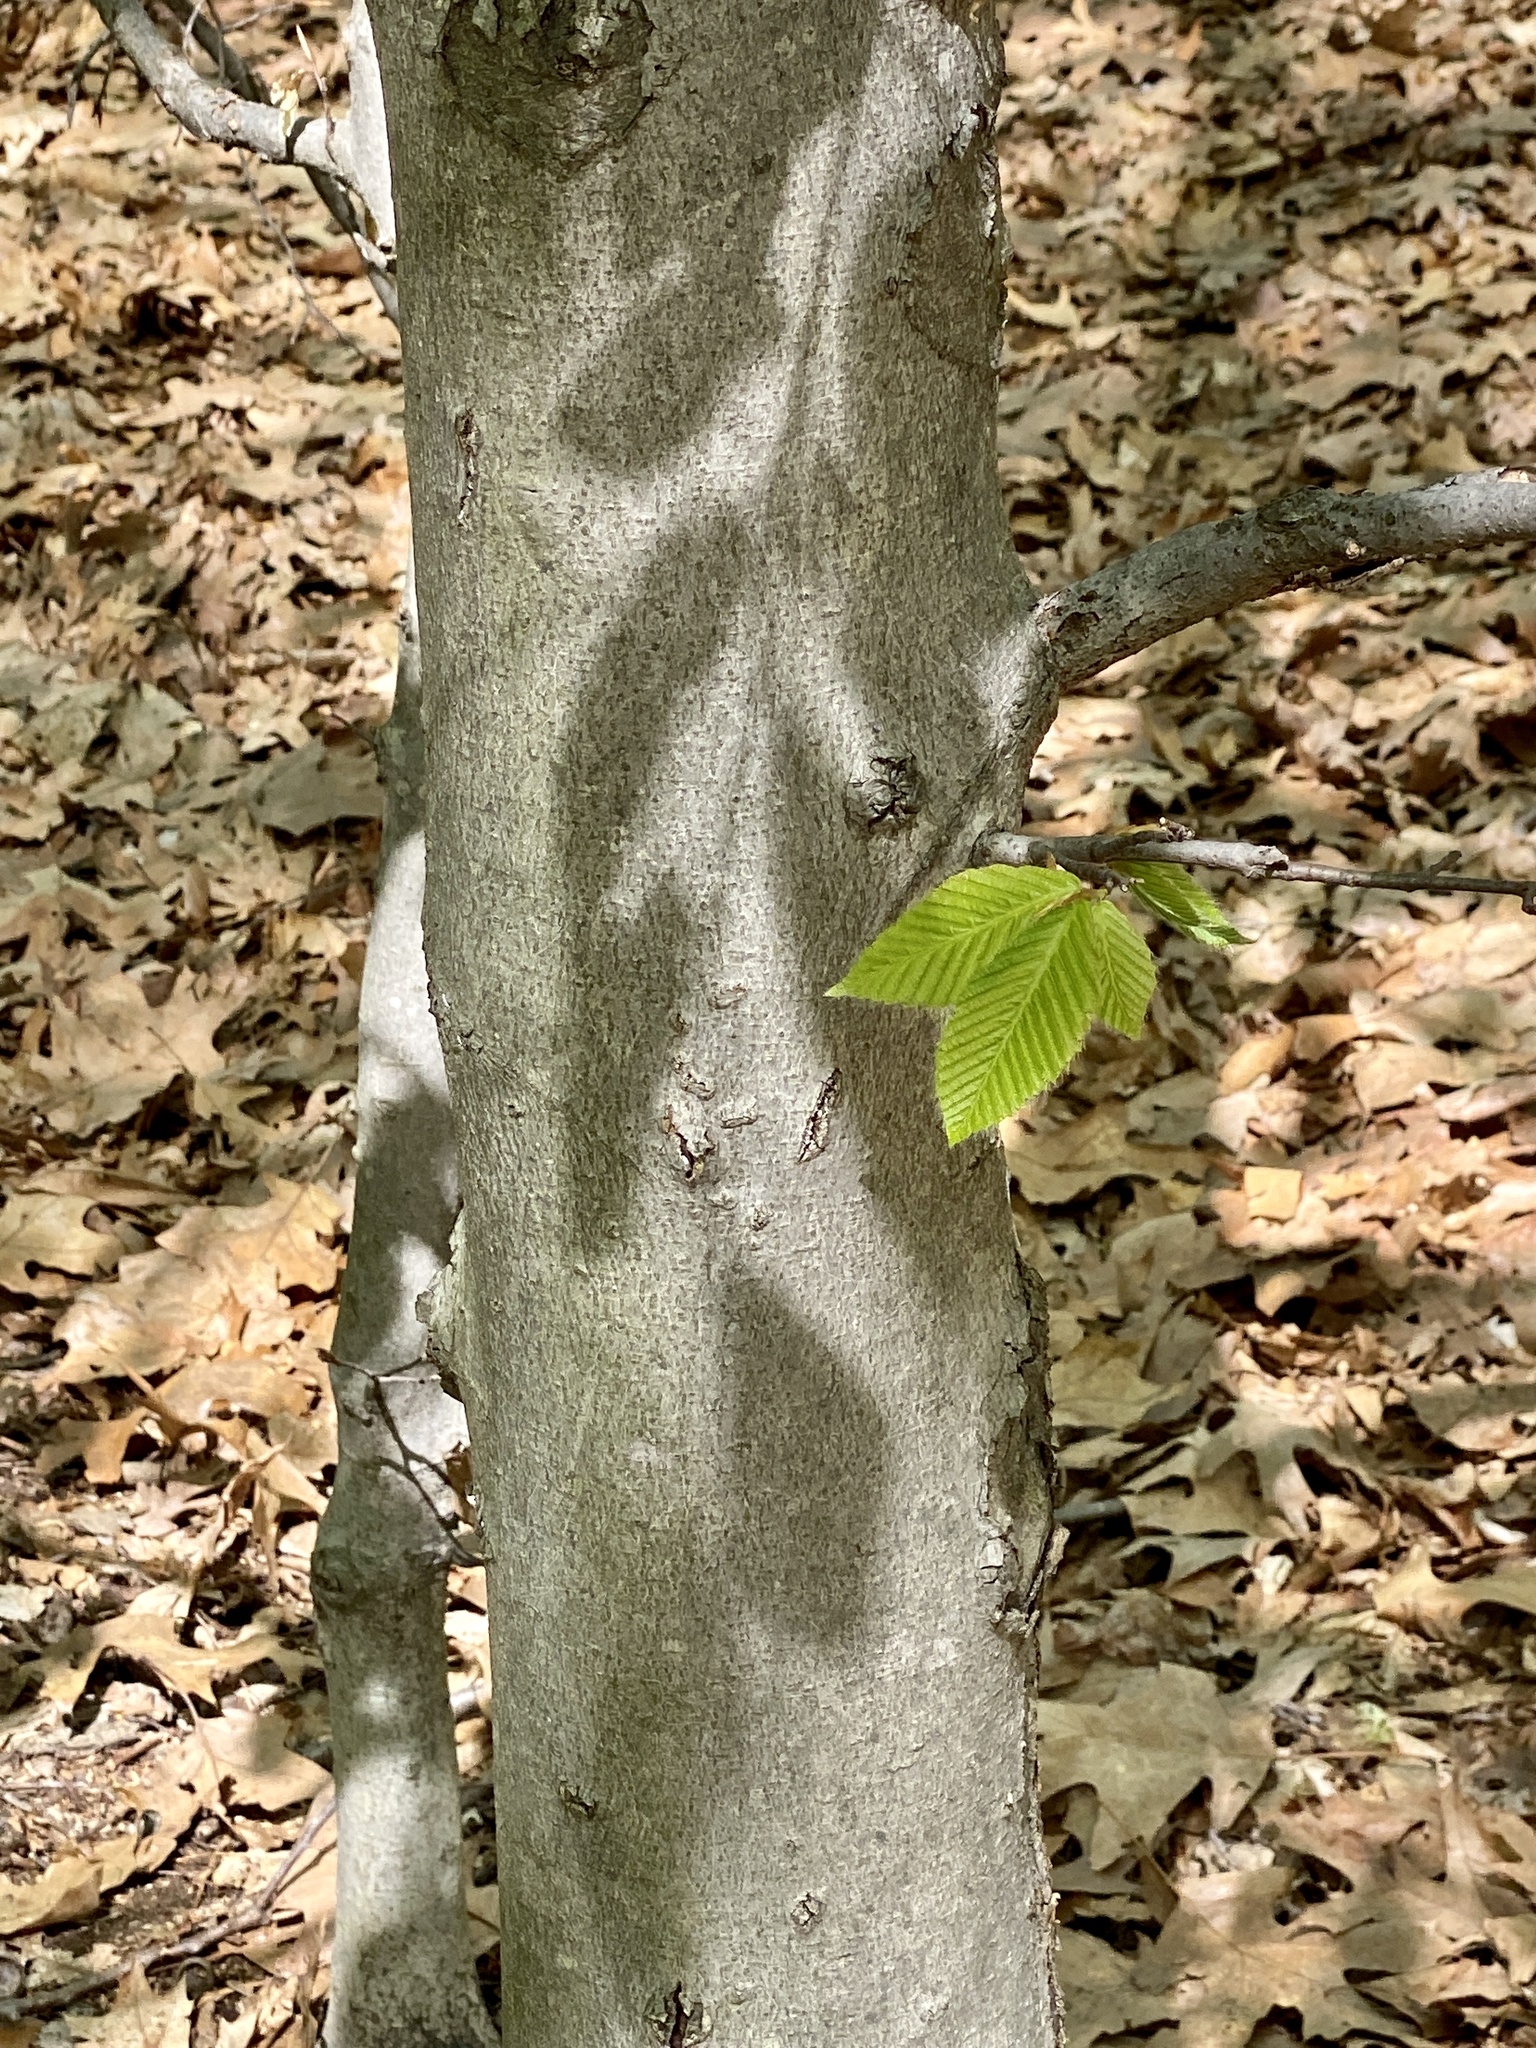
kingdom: Plantae
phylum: Tracheophyta
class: Magnoliopsida
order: Fagales
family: Fagaceae
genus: Fagus
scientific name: Fagus grandifolia
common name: American beech
